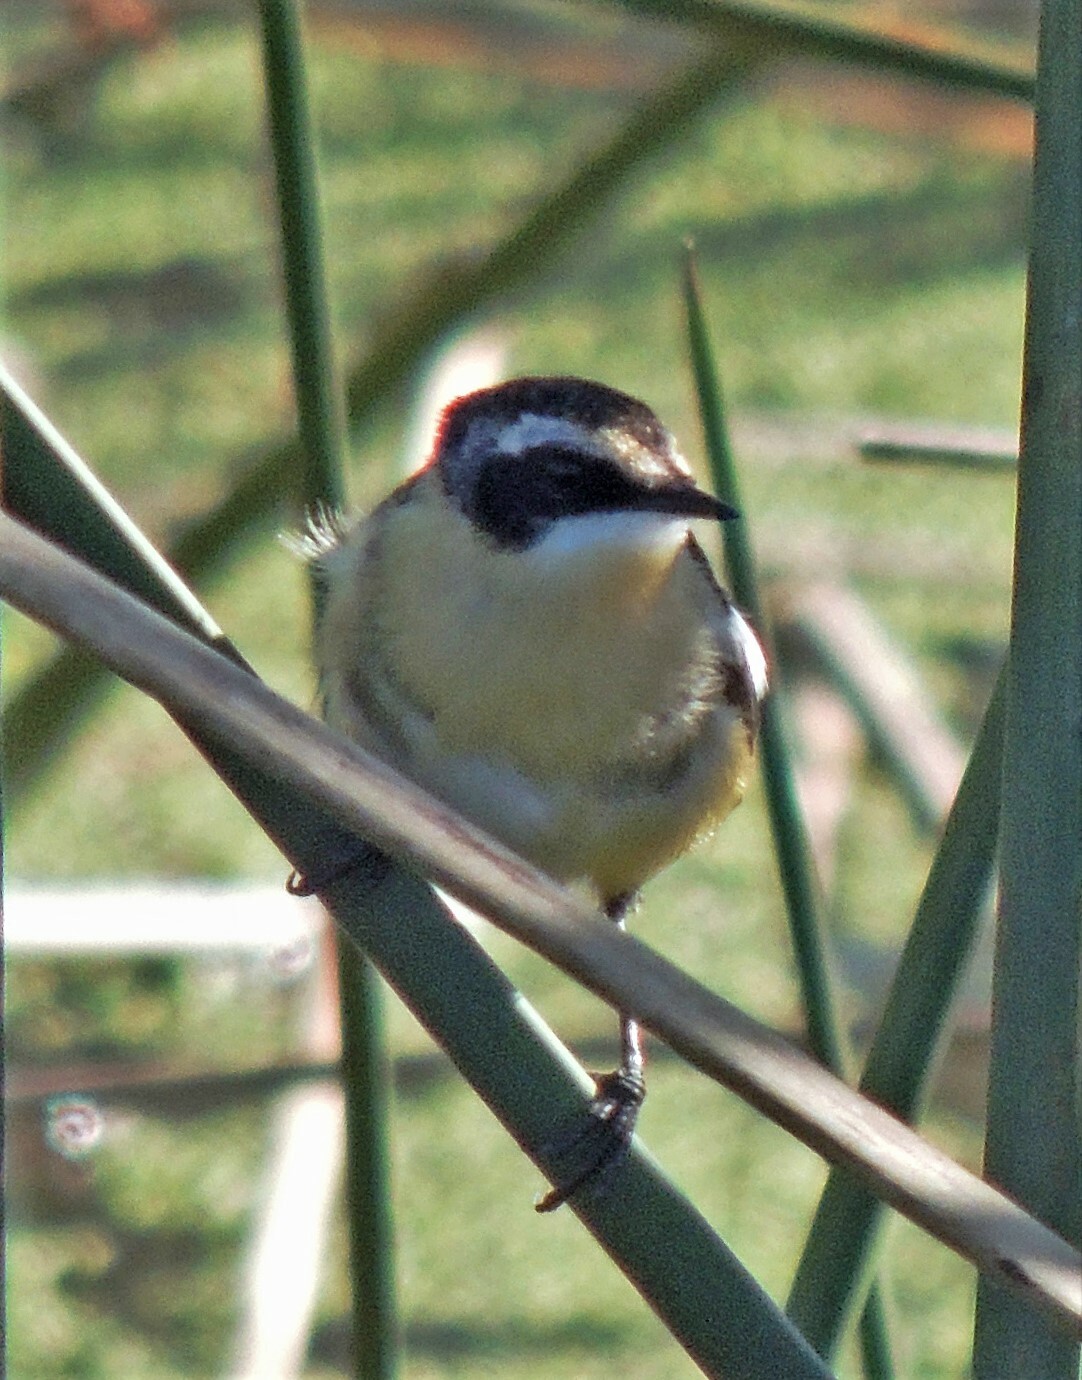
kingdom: Animalia
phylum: Chordata
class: Aves
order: Passeriformes
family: Tyrannidae
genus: Tachuris
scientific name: Tachuris rubrigastra
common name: Many-colored rush tyrant
